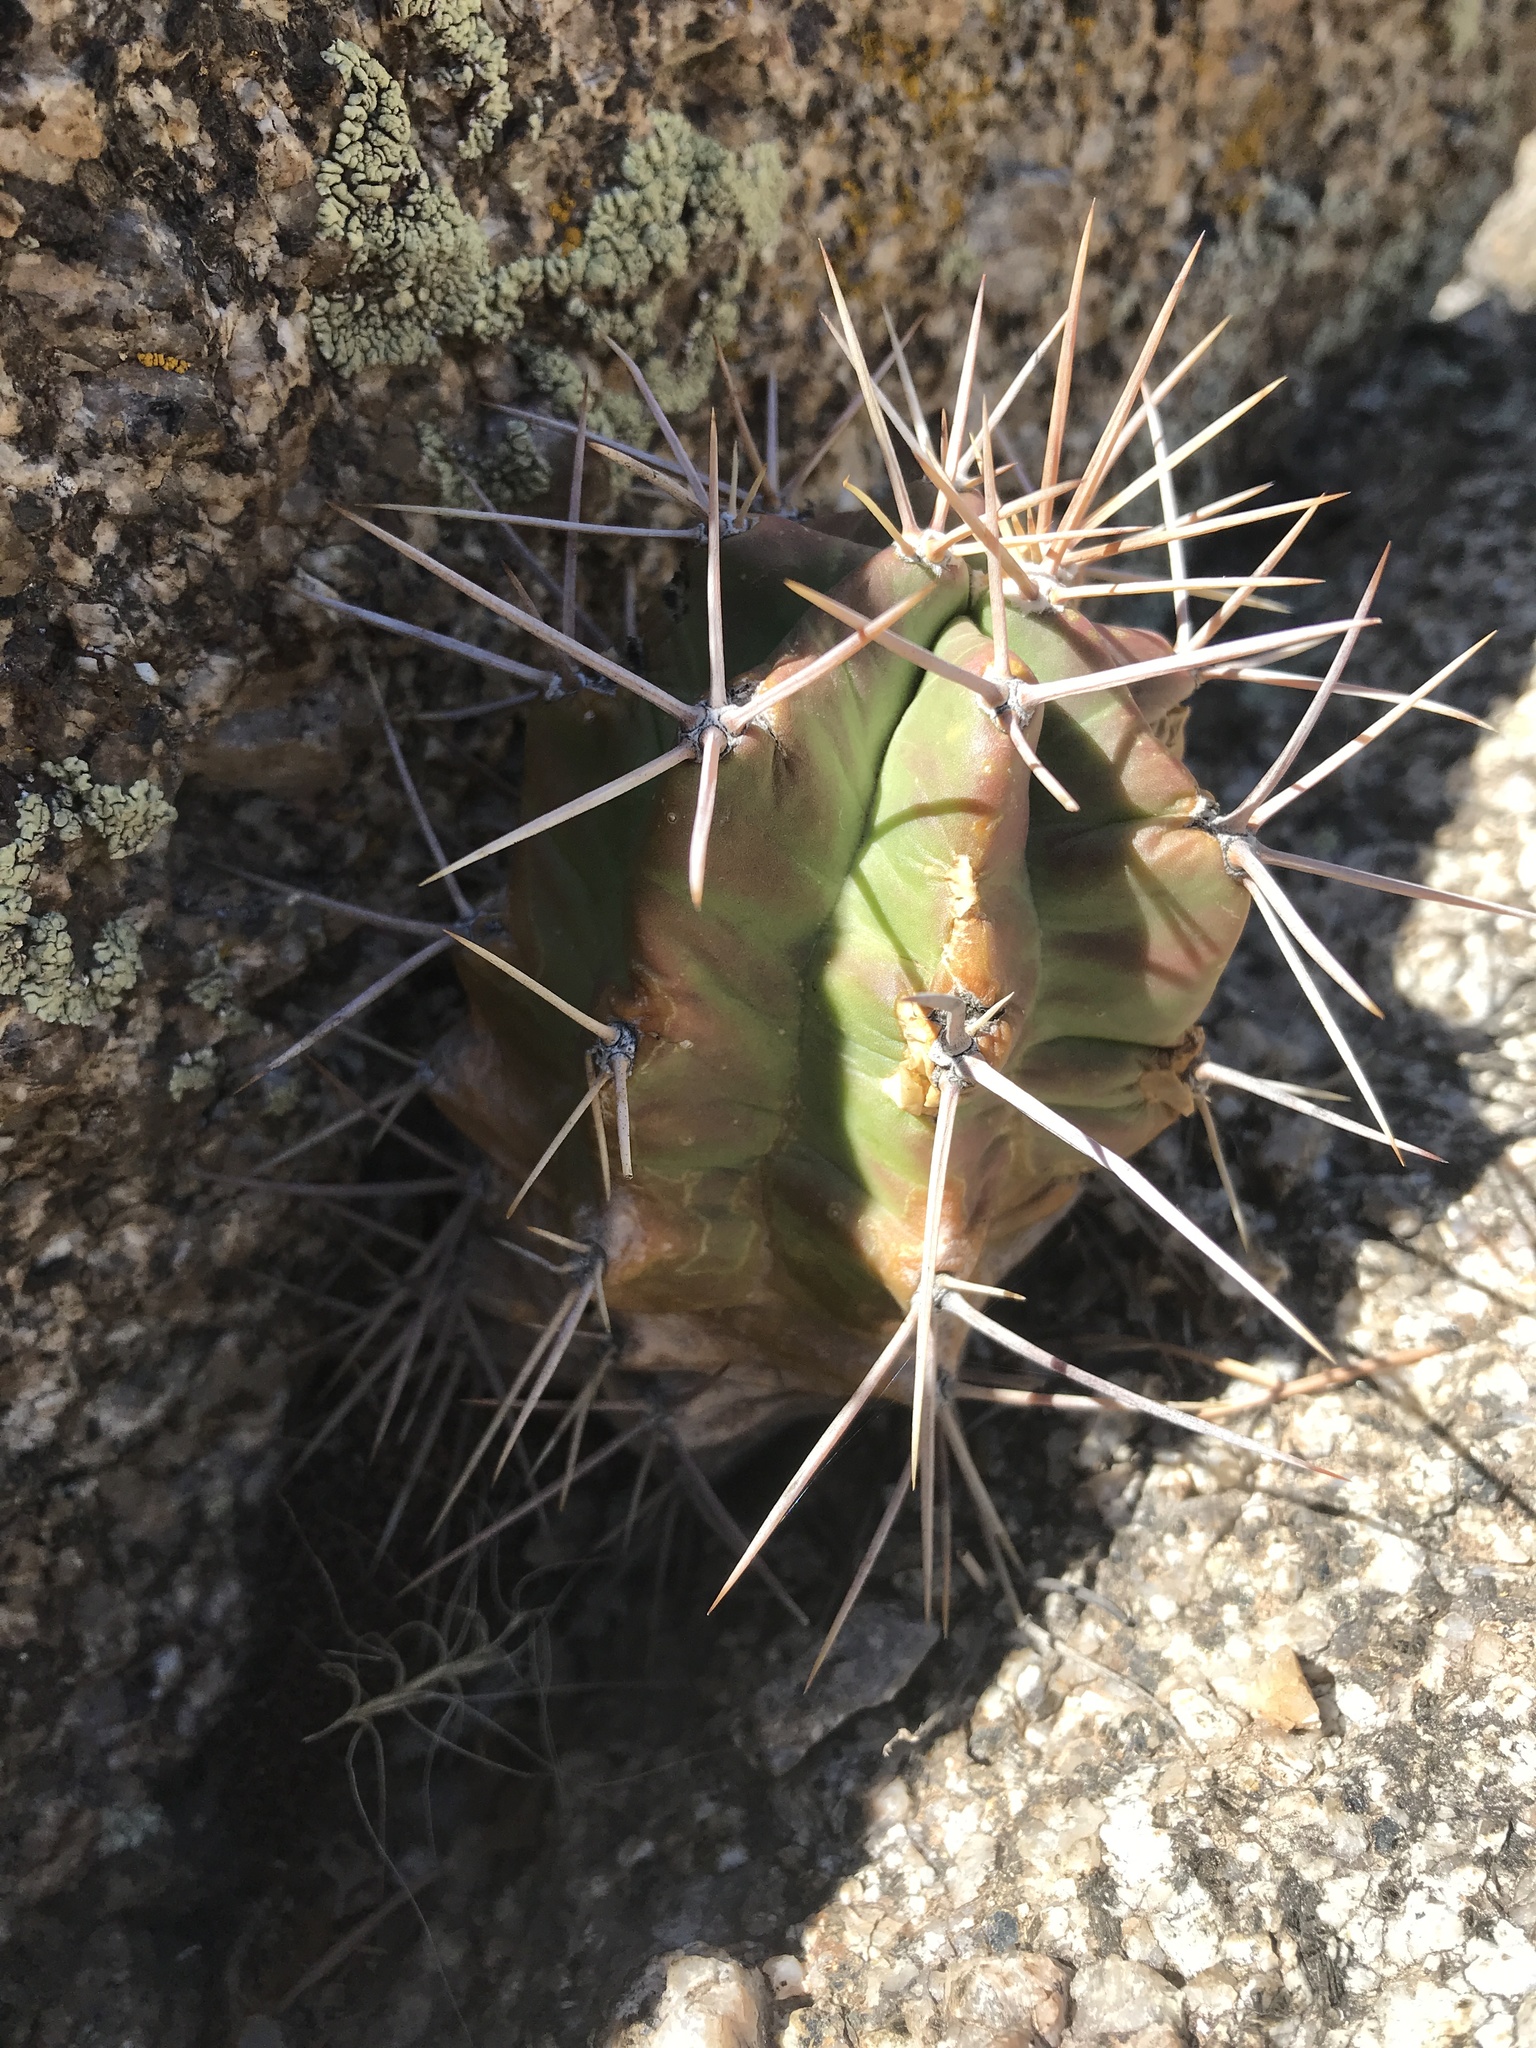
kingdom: Plantae
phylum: Tracheophyta
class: Magnoliopsida
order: Caryophyllales
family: Cactaceae
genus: Echinocereus
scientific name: Echinocereus triglochidiatus
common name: Claretcup hedgehog
